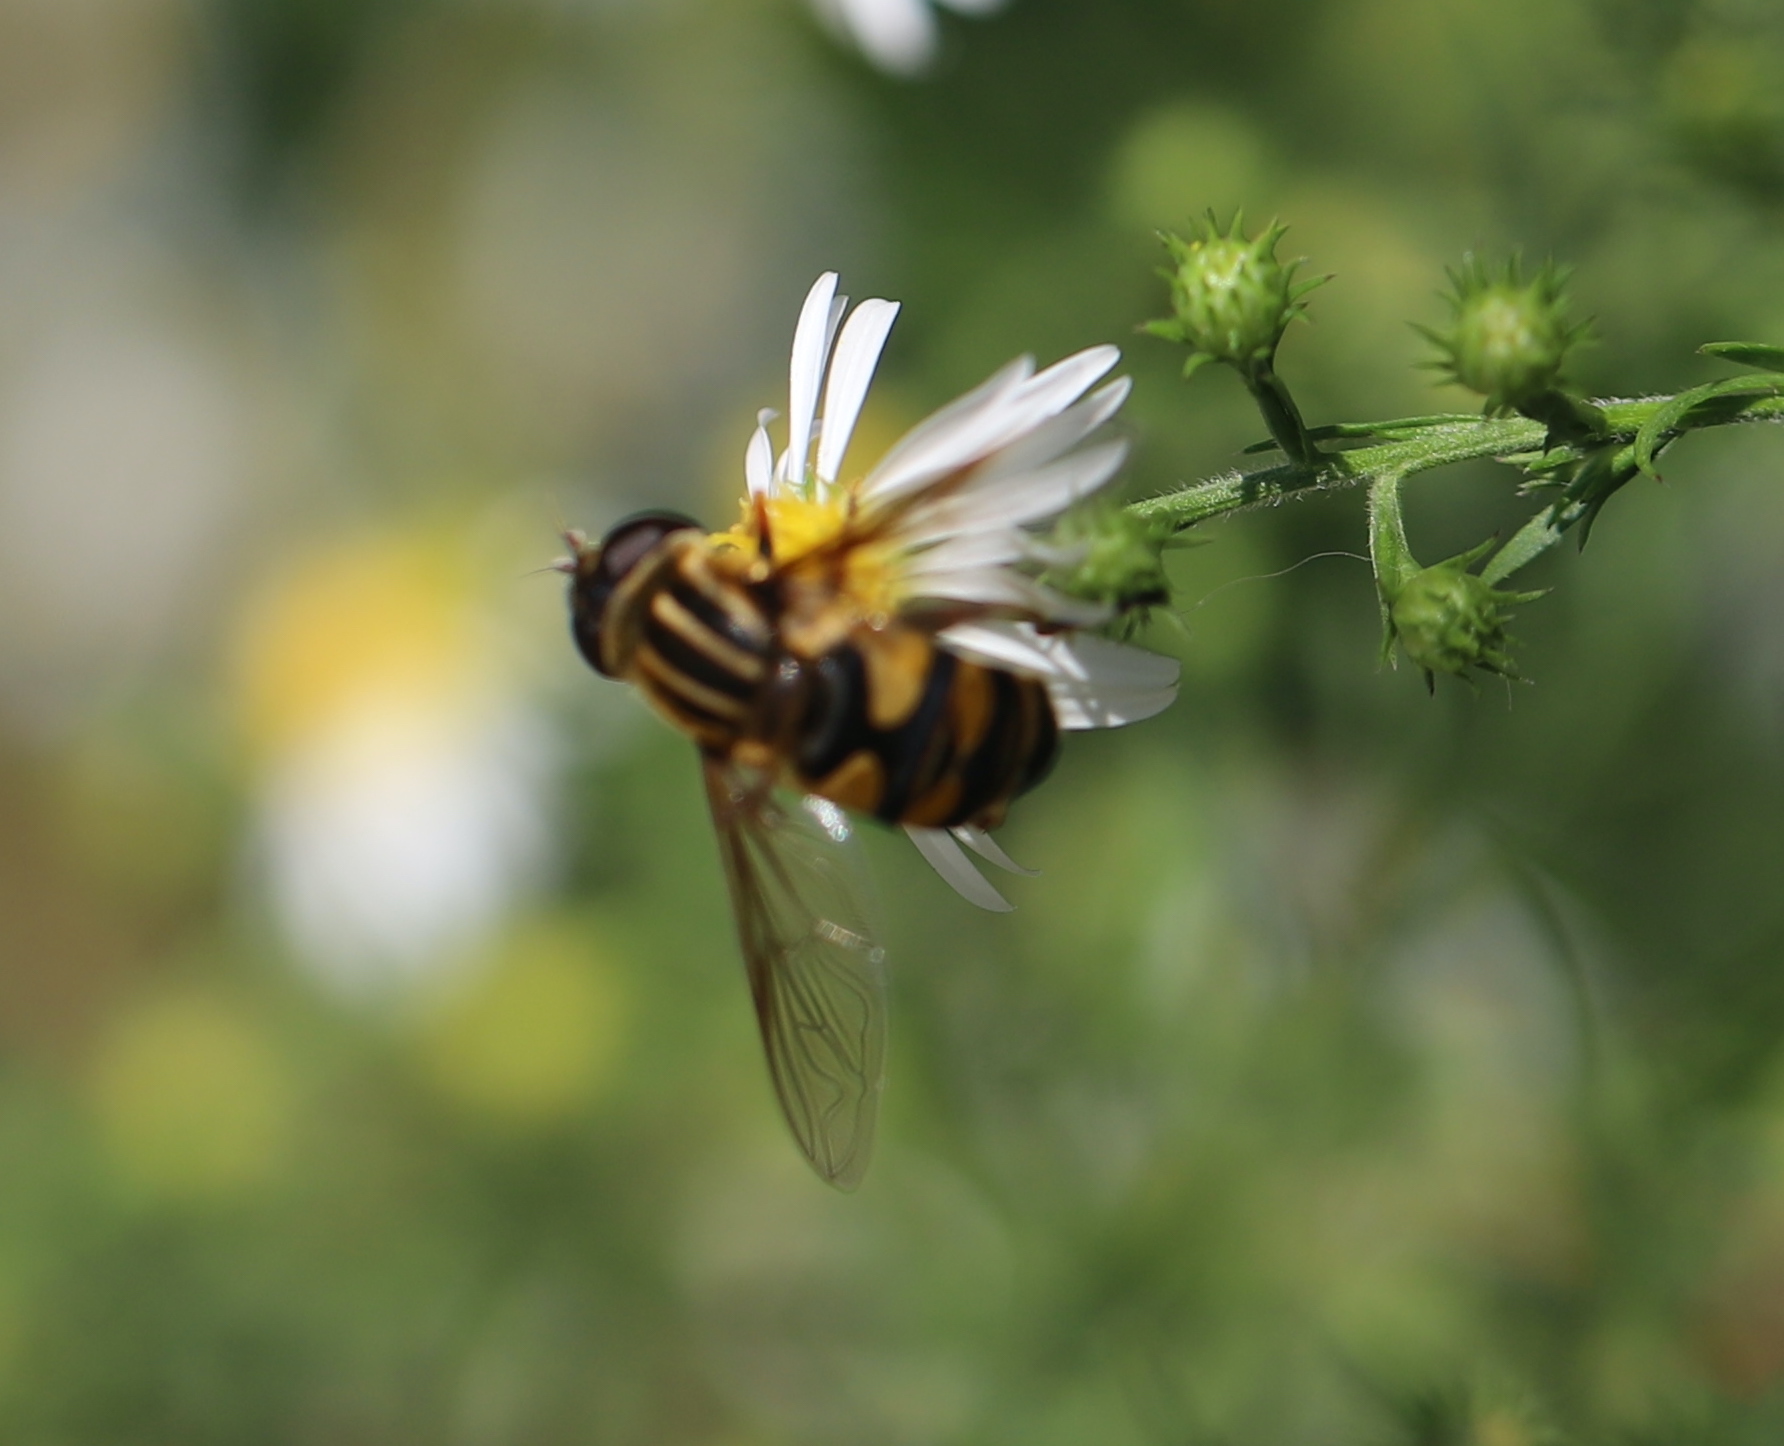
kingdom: Animalia
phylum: Arthropoda
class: Insecta
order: Diptera
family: Syrphidae
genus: Helophilus
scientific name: Helophilus fasciatus
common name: Narrow-headed marsh fly
